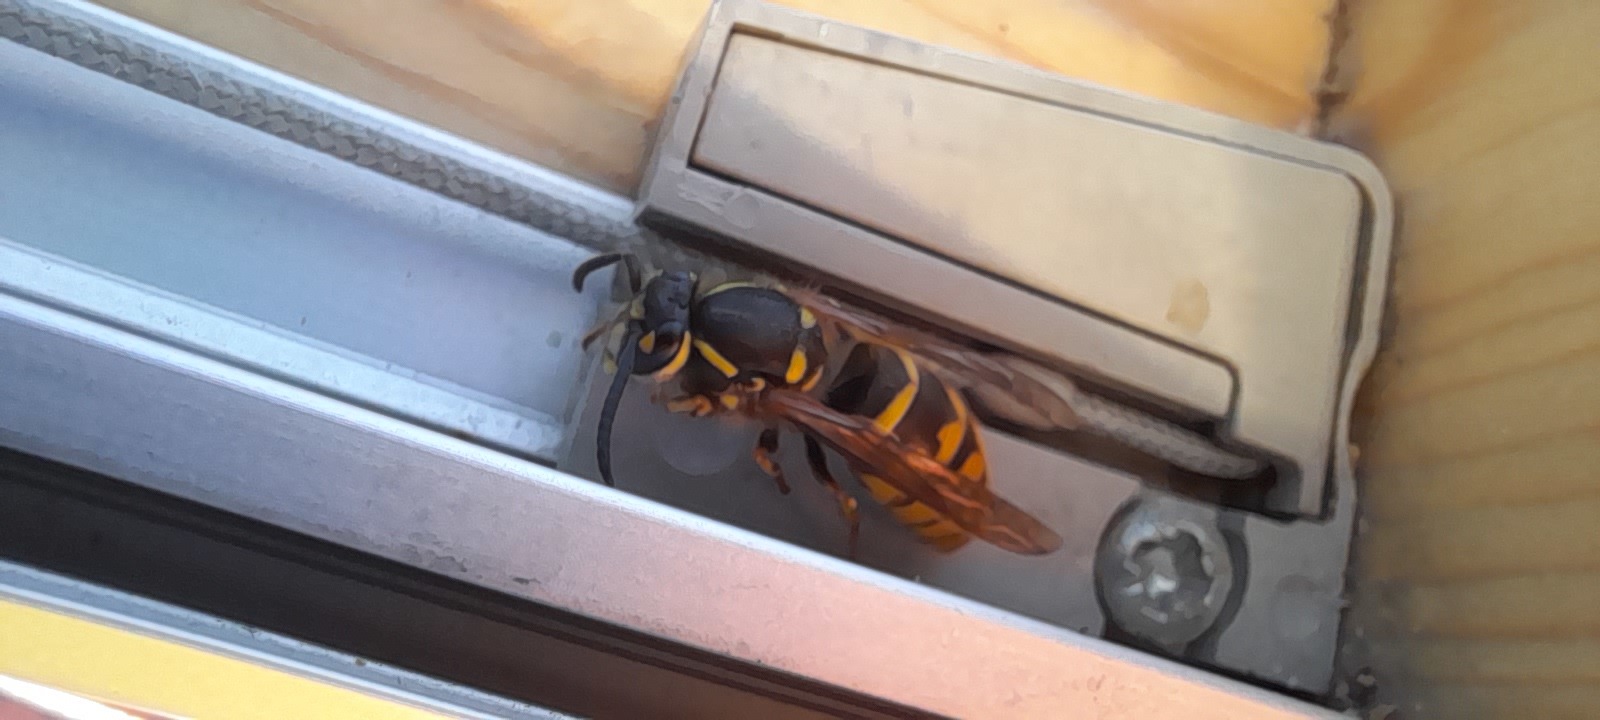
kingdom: Animalia
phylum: Arthropoda
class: Insecta
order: Hymenoptera
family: Vespidae
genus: Vespula
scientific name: Vespula vulgaris
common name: Common wasp
